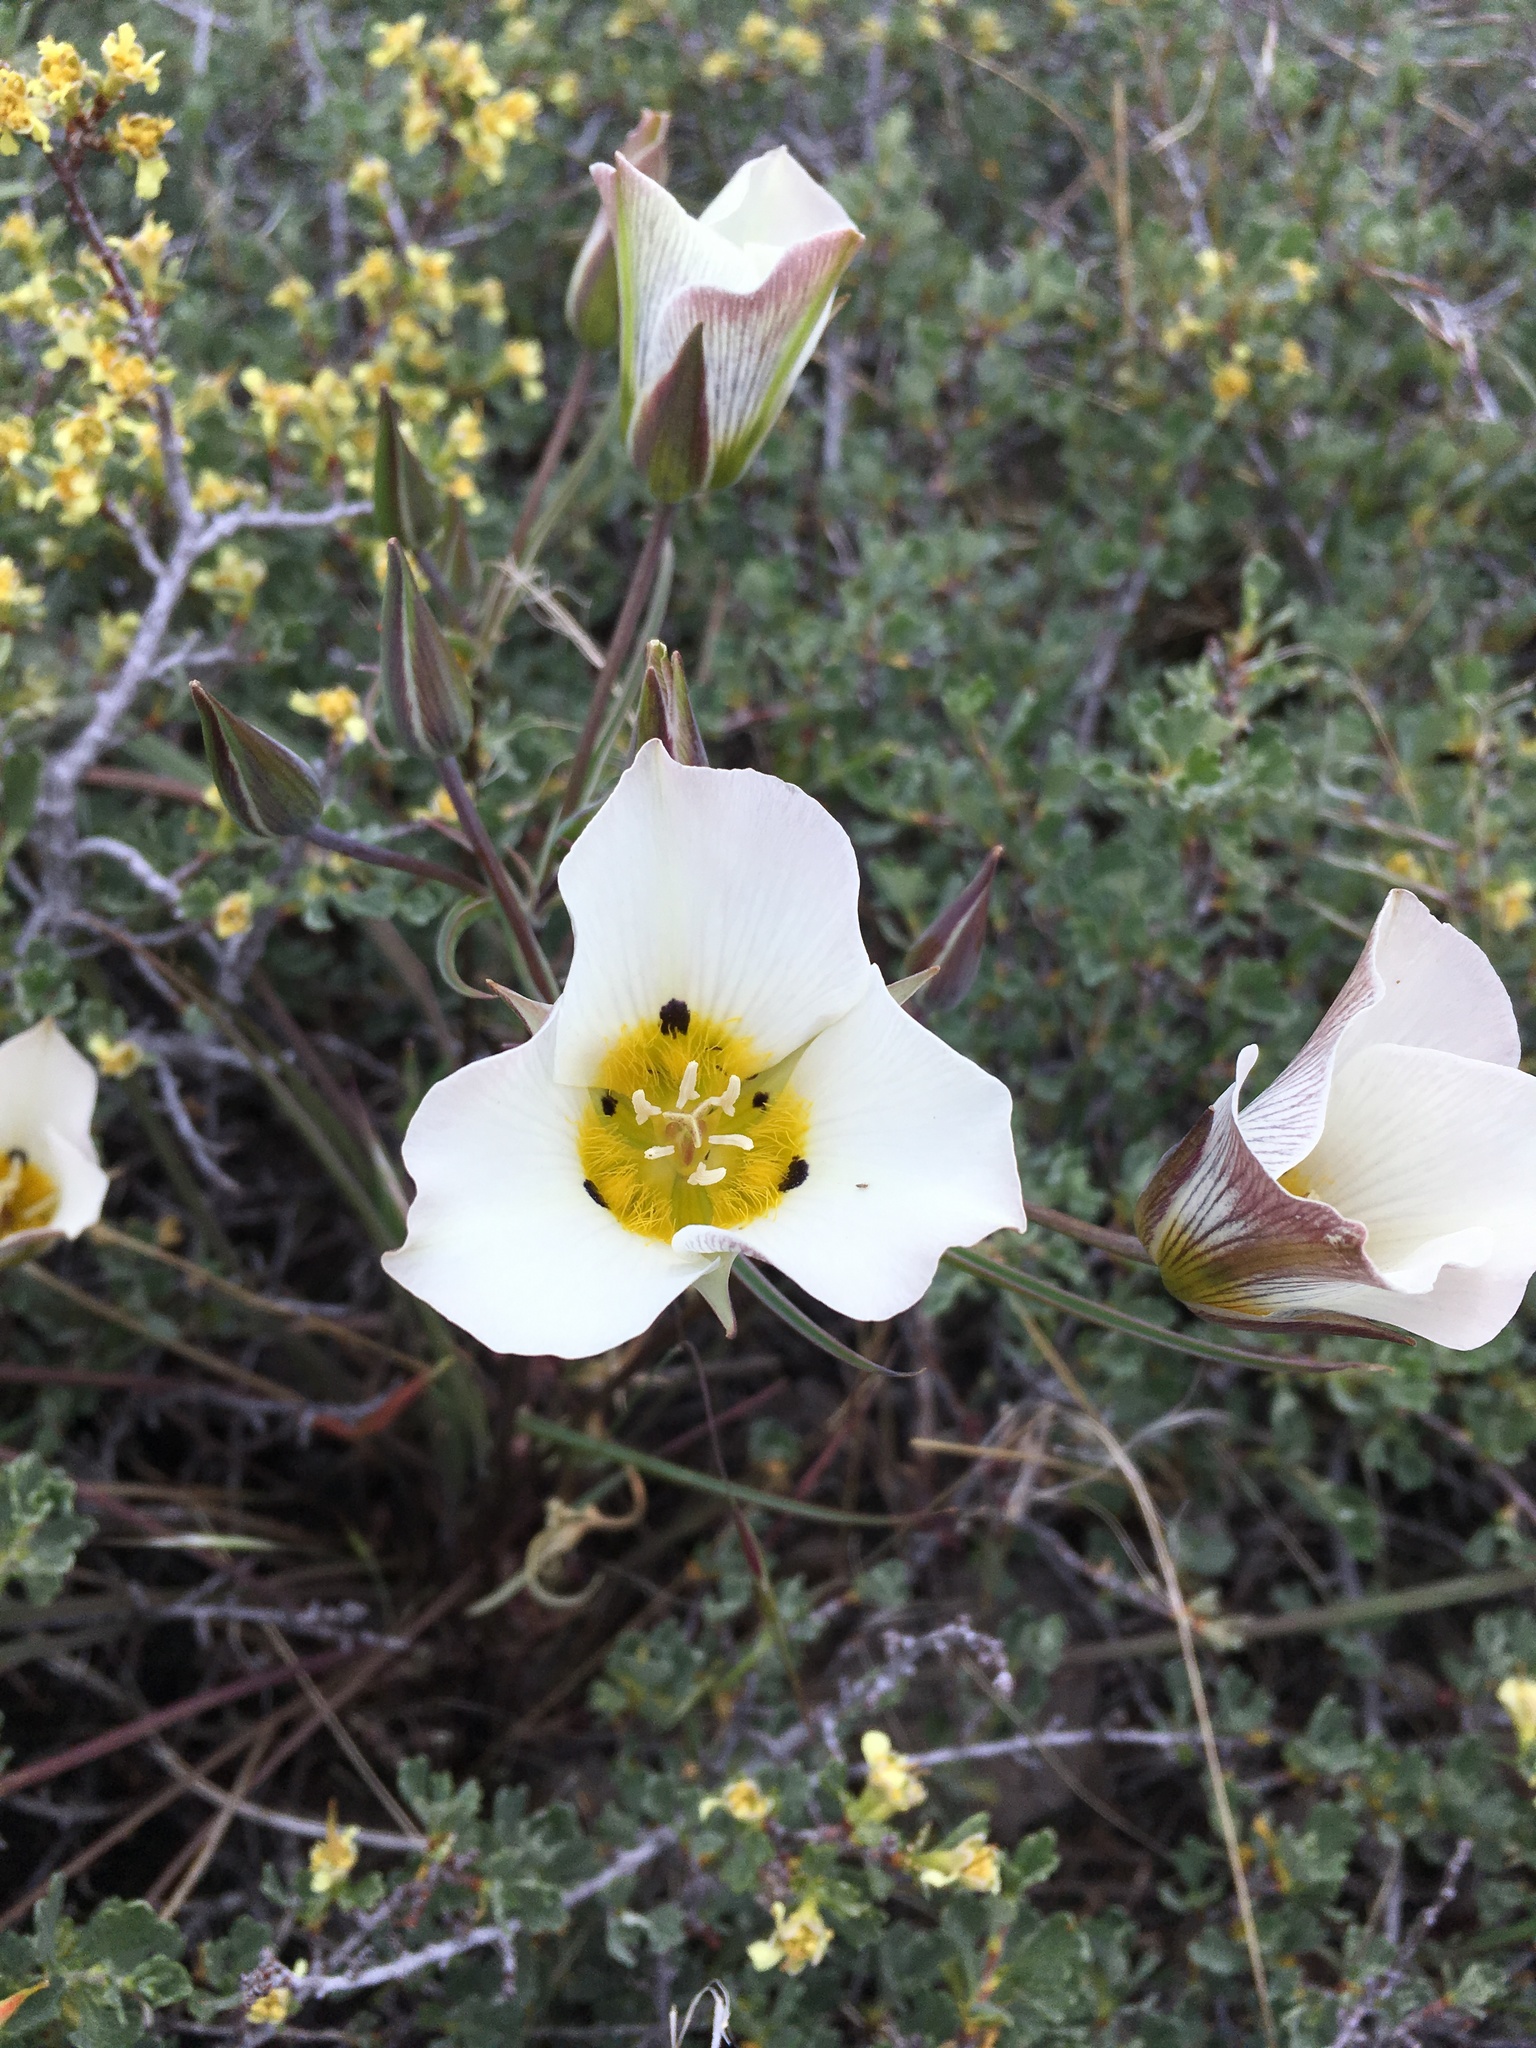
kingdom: Plantae
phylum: Tracheophyta
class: Liliopsida
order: Liliales
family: Liliaceae
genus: Calochortus
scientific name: Calochortus leichtlinii
